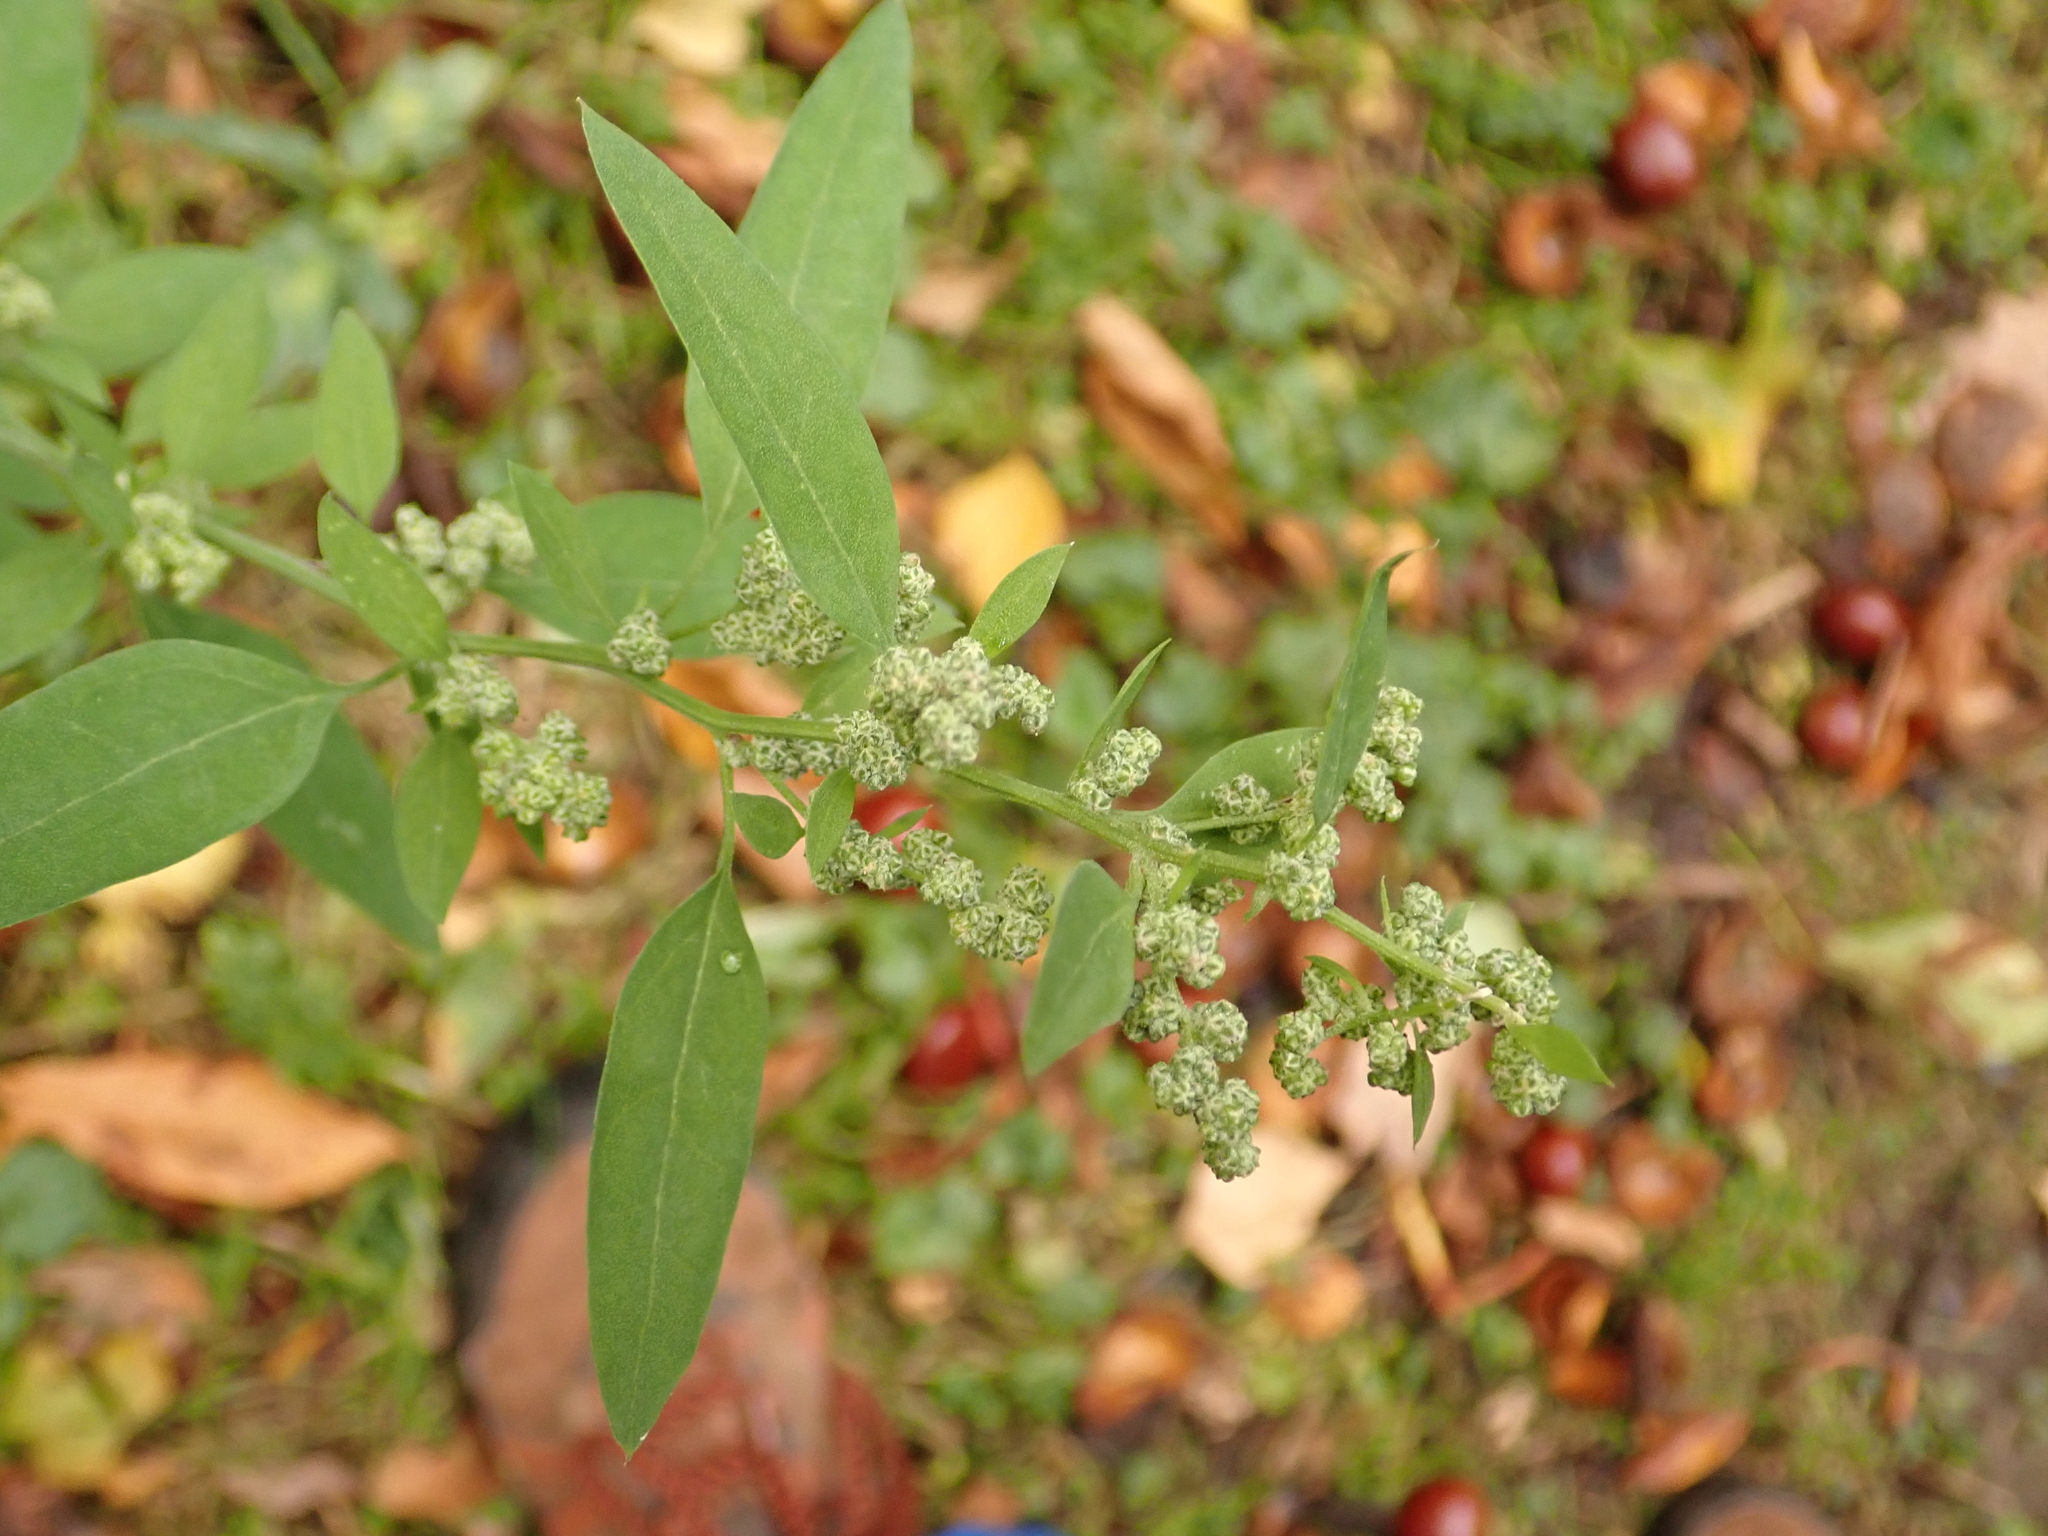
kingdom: Plantae
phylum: Tracheophyta
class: Magnoliopsida
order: Caryophyllales
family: Amaranthaceae
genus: Chenopodium
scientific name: Chenopodium album
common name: Fat-hen
